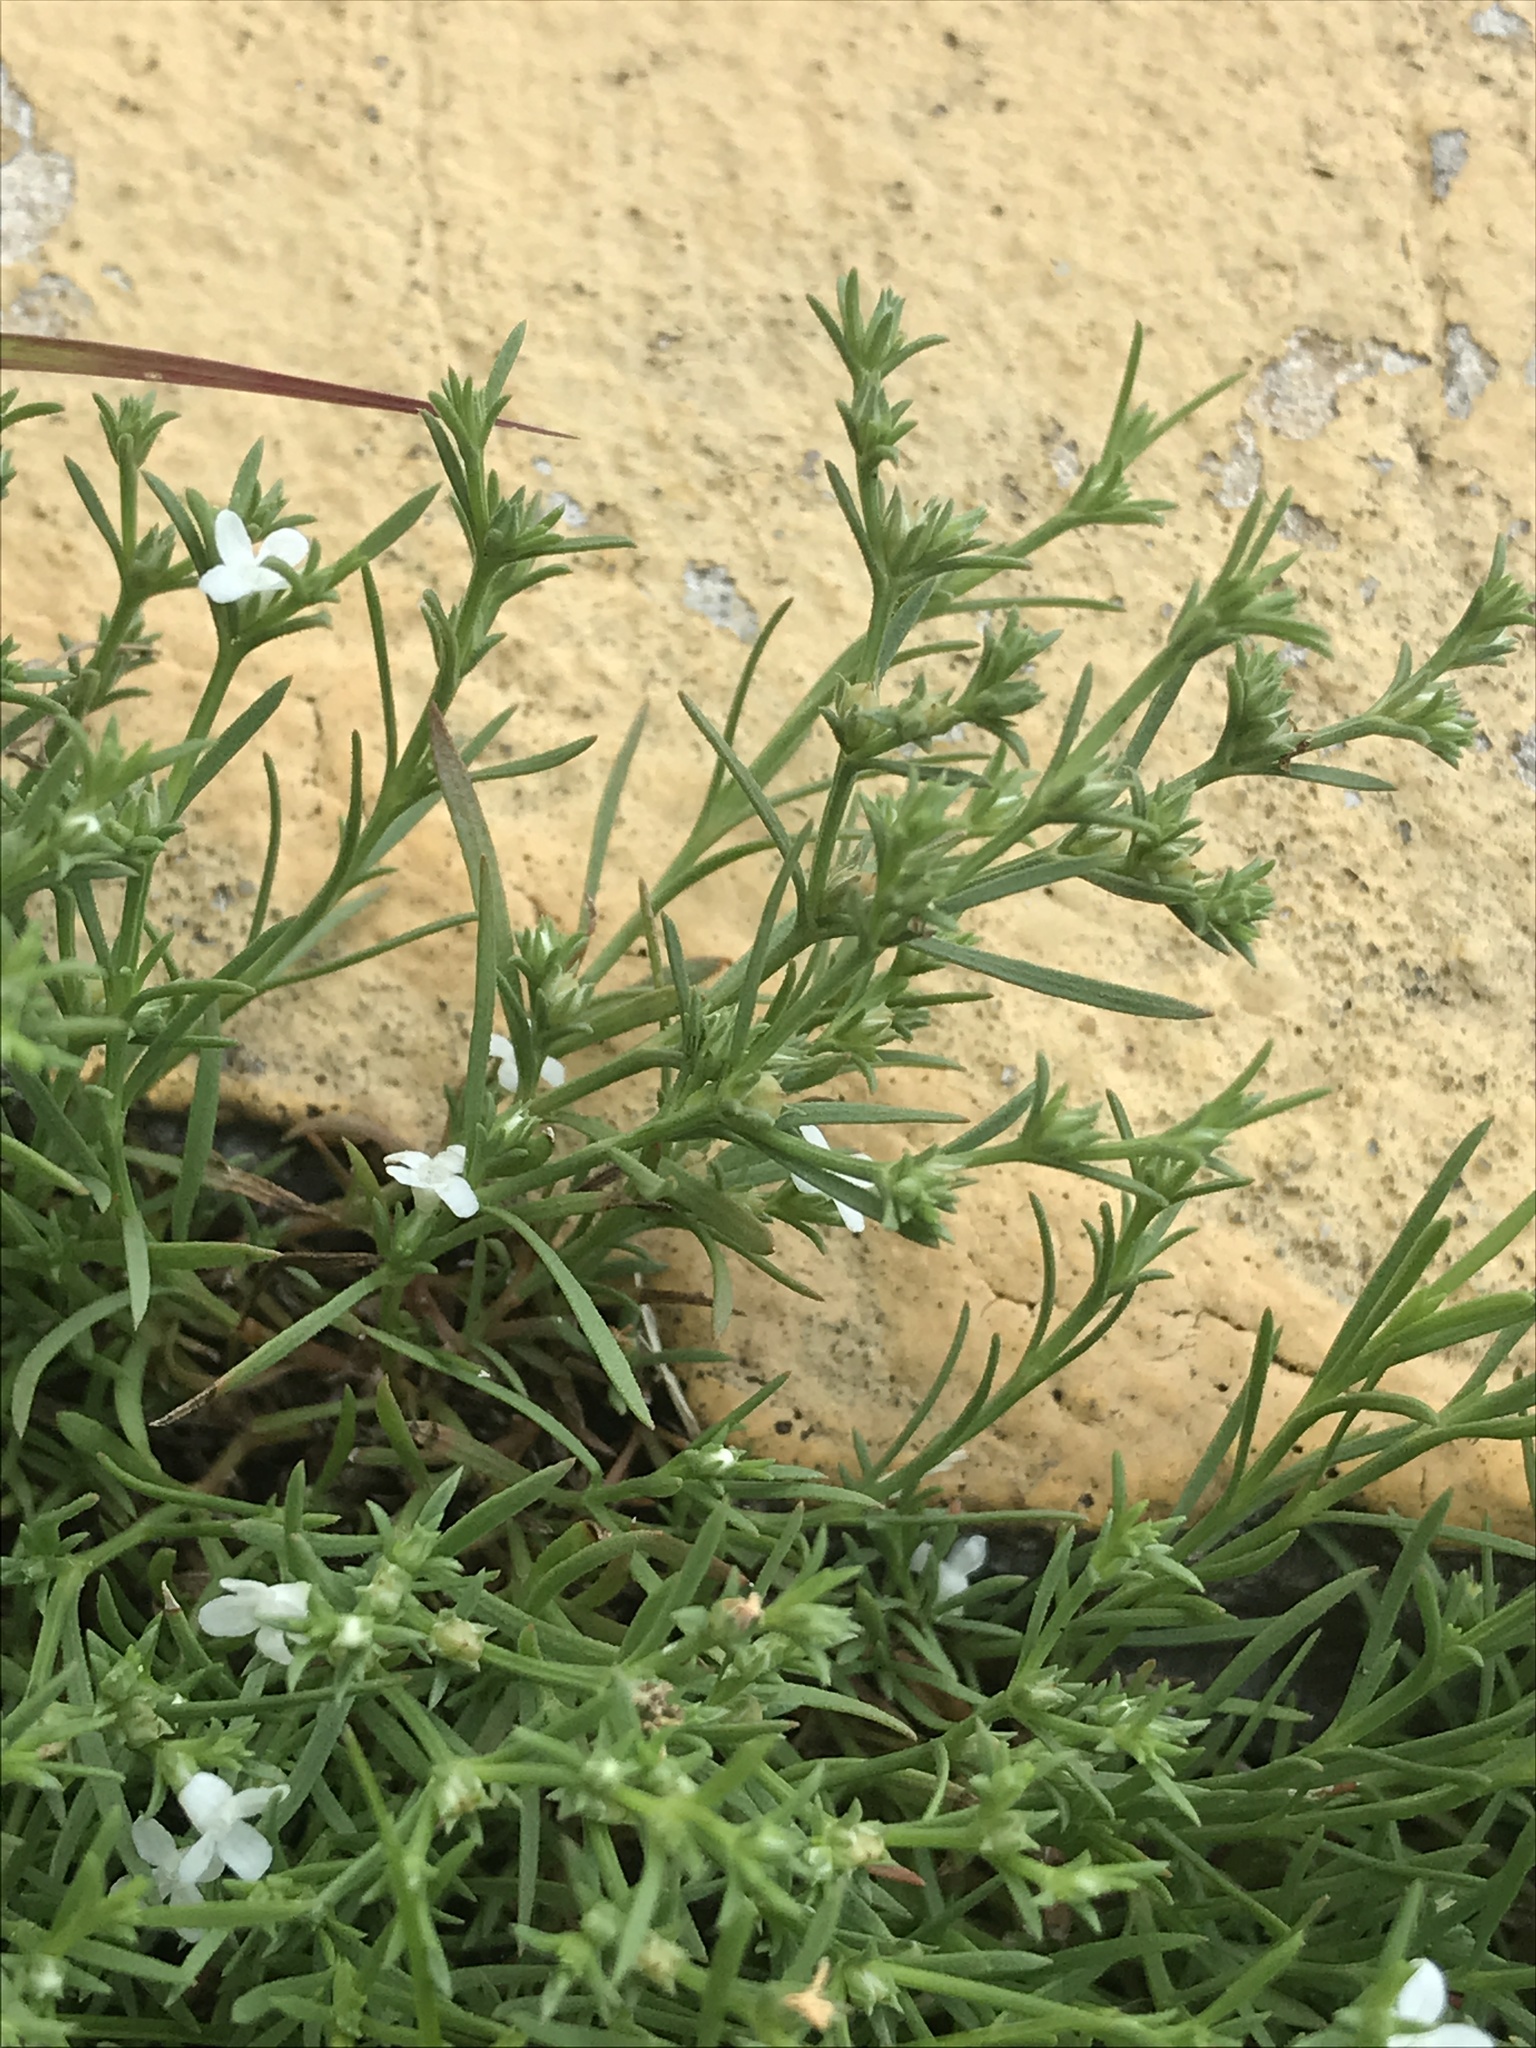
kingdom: Plantae
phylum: Tracheophyta
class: Magnoliopsida
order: Lamiales
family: Tetrachondraceae
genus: Polypremum
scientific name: Polypremum procumbens
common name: Juniper-leaf
